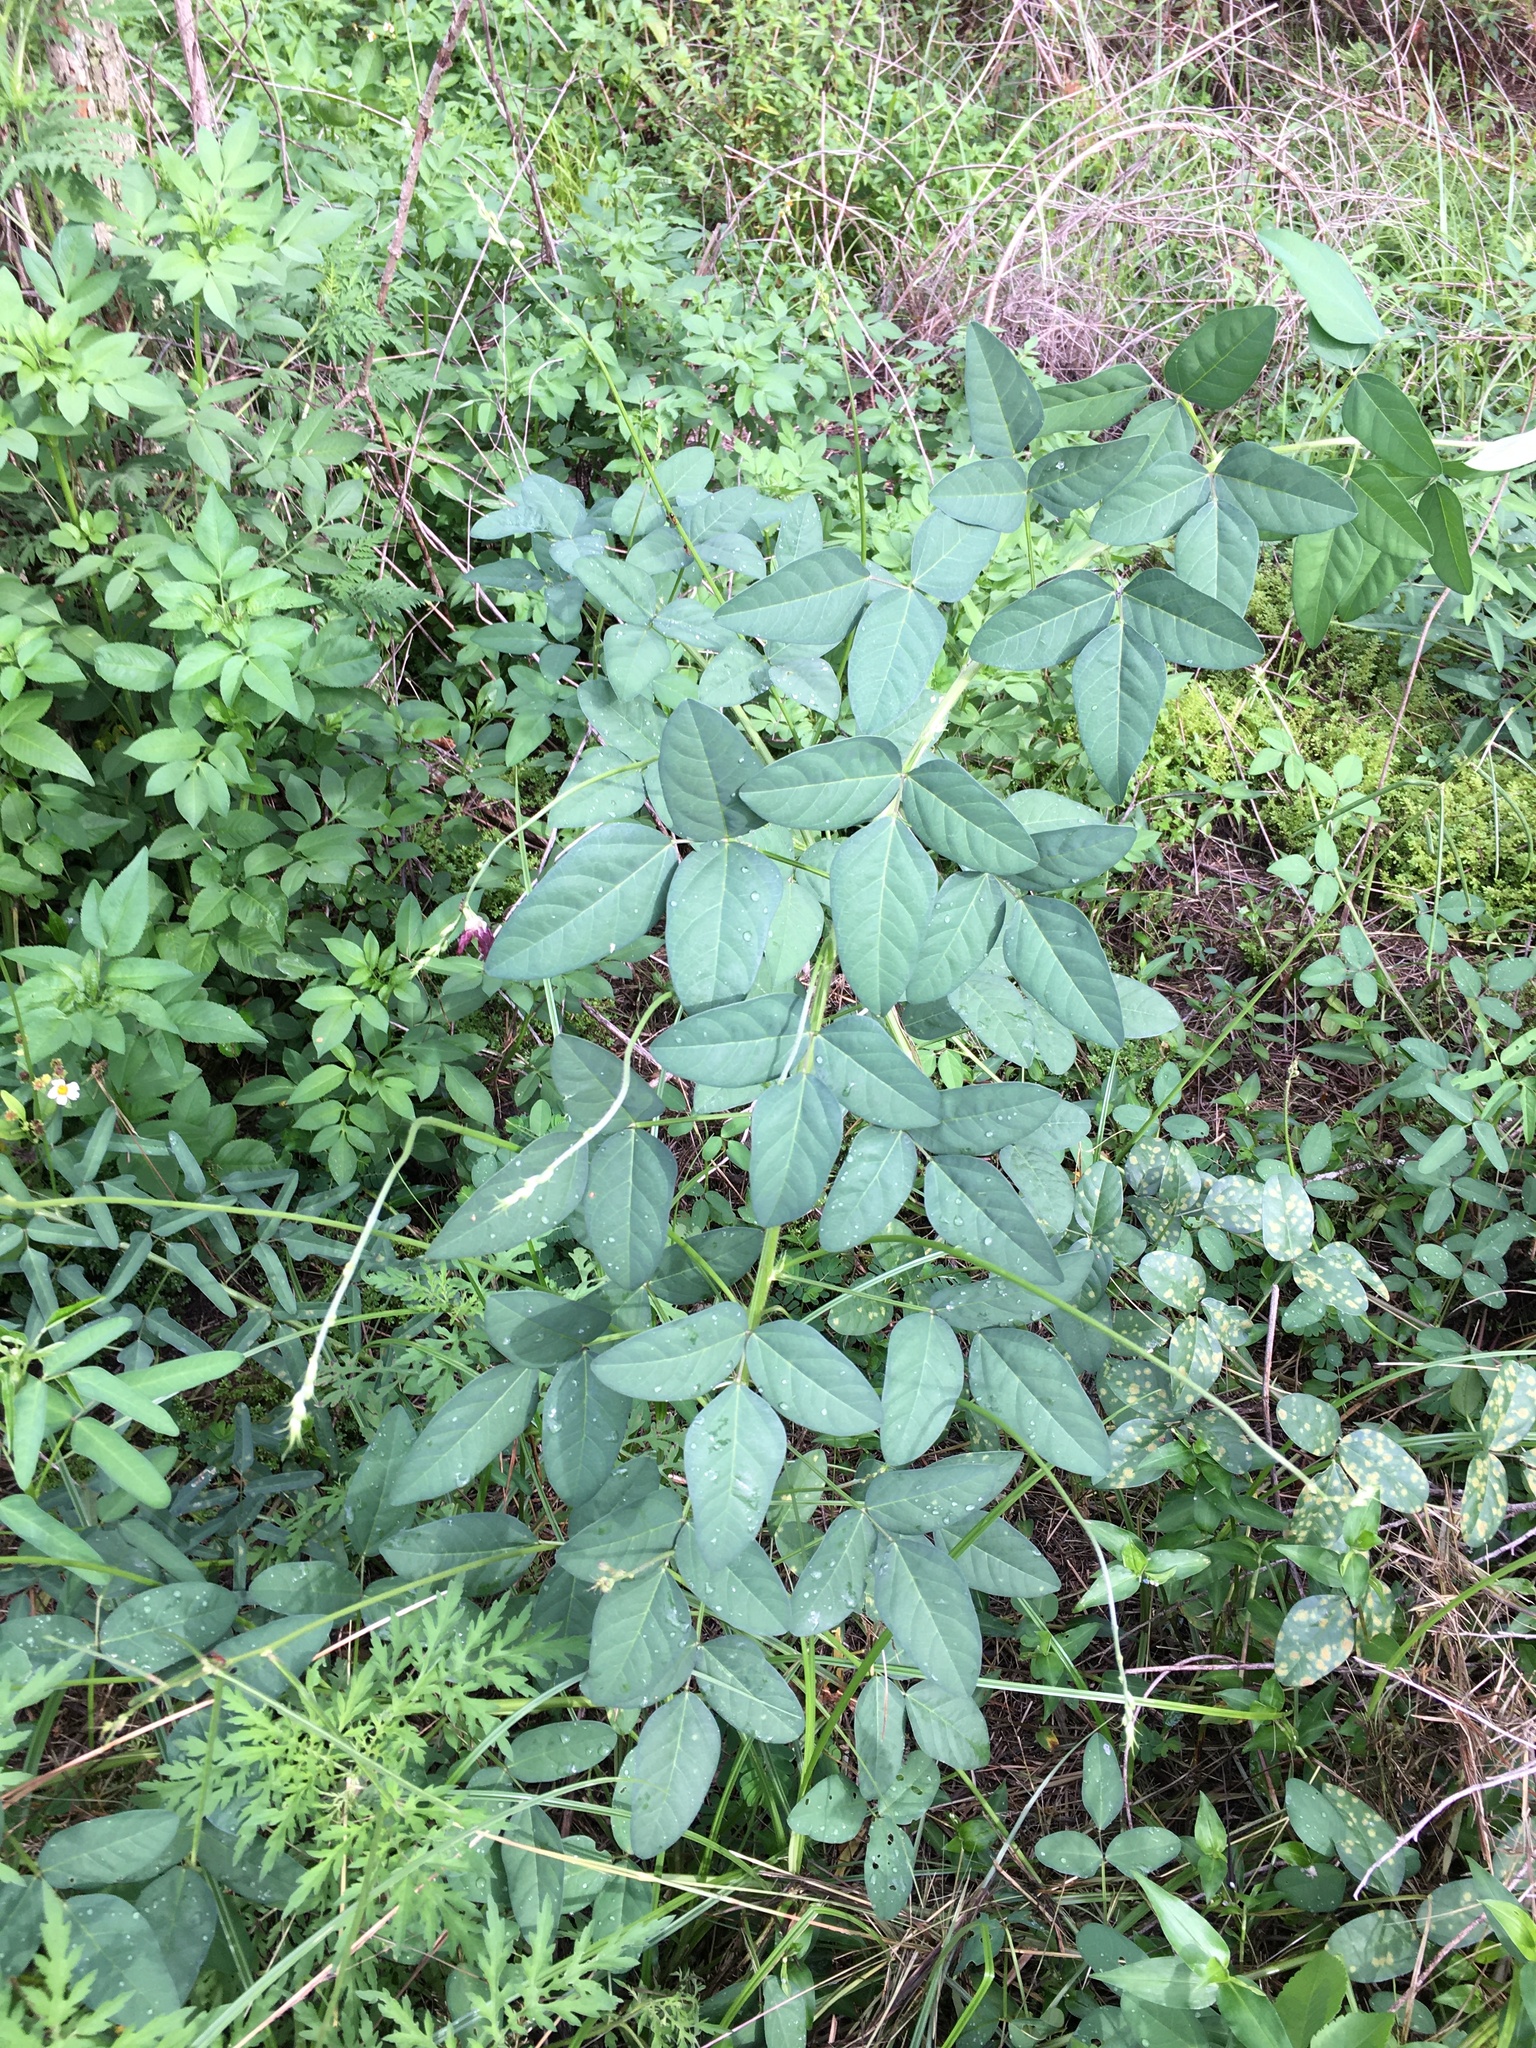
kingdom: Plantae
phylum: Tracheophyta
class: Magnoliopsida
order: Fabales
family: Fabaceae
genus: Macroptilium
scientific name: Macroptilium lathyroides
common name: Wild bushbean
